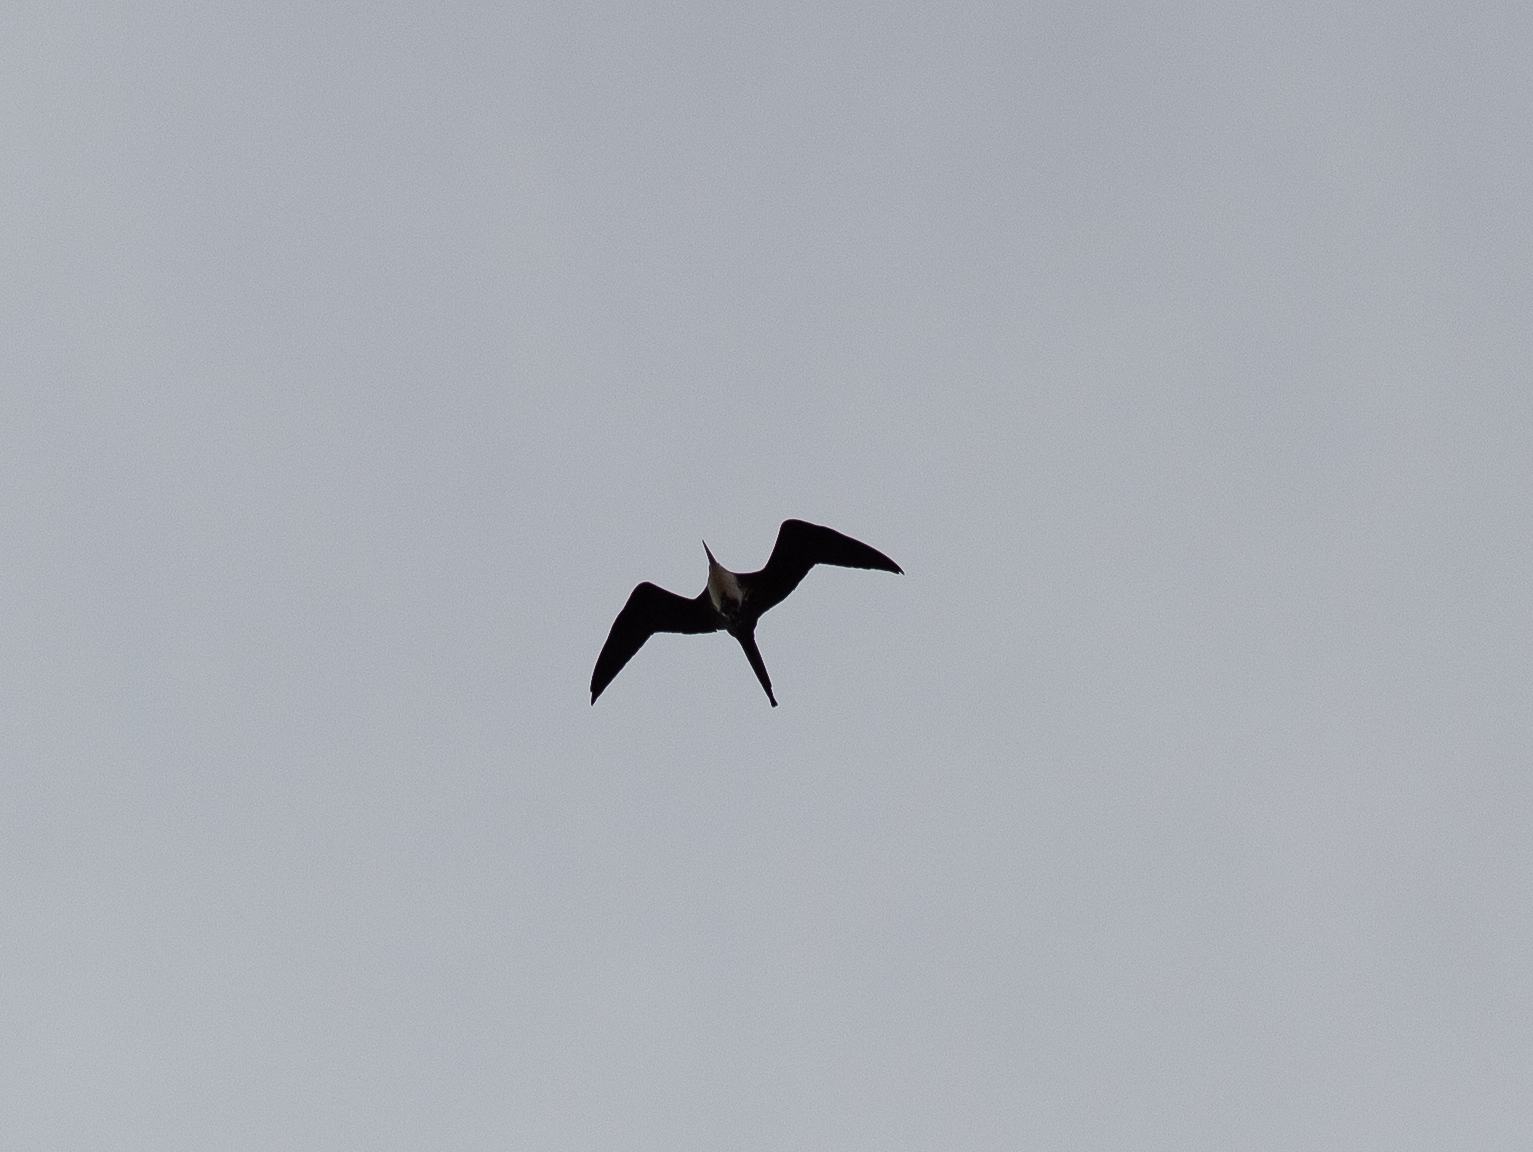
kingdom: Animalia
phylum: Chordata
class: Aves
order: Suliformes
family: Fregatidae
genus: Fregata
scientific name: Fregata magnificens
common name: Magnificent frigatebird
